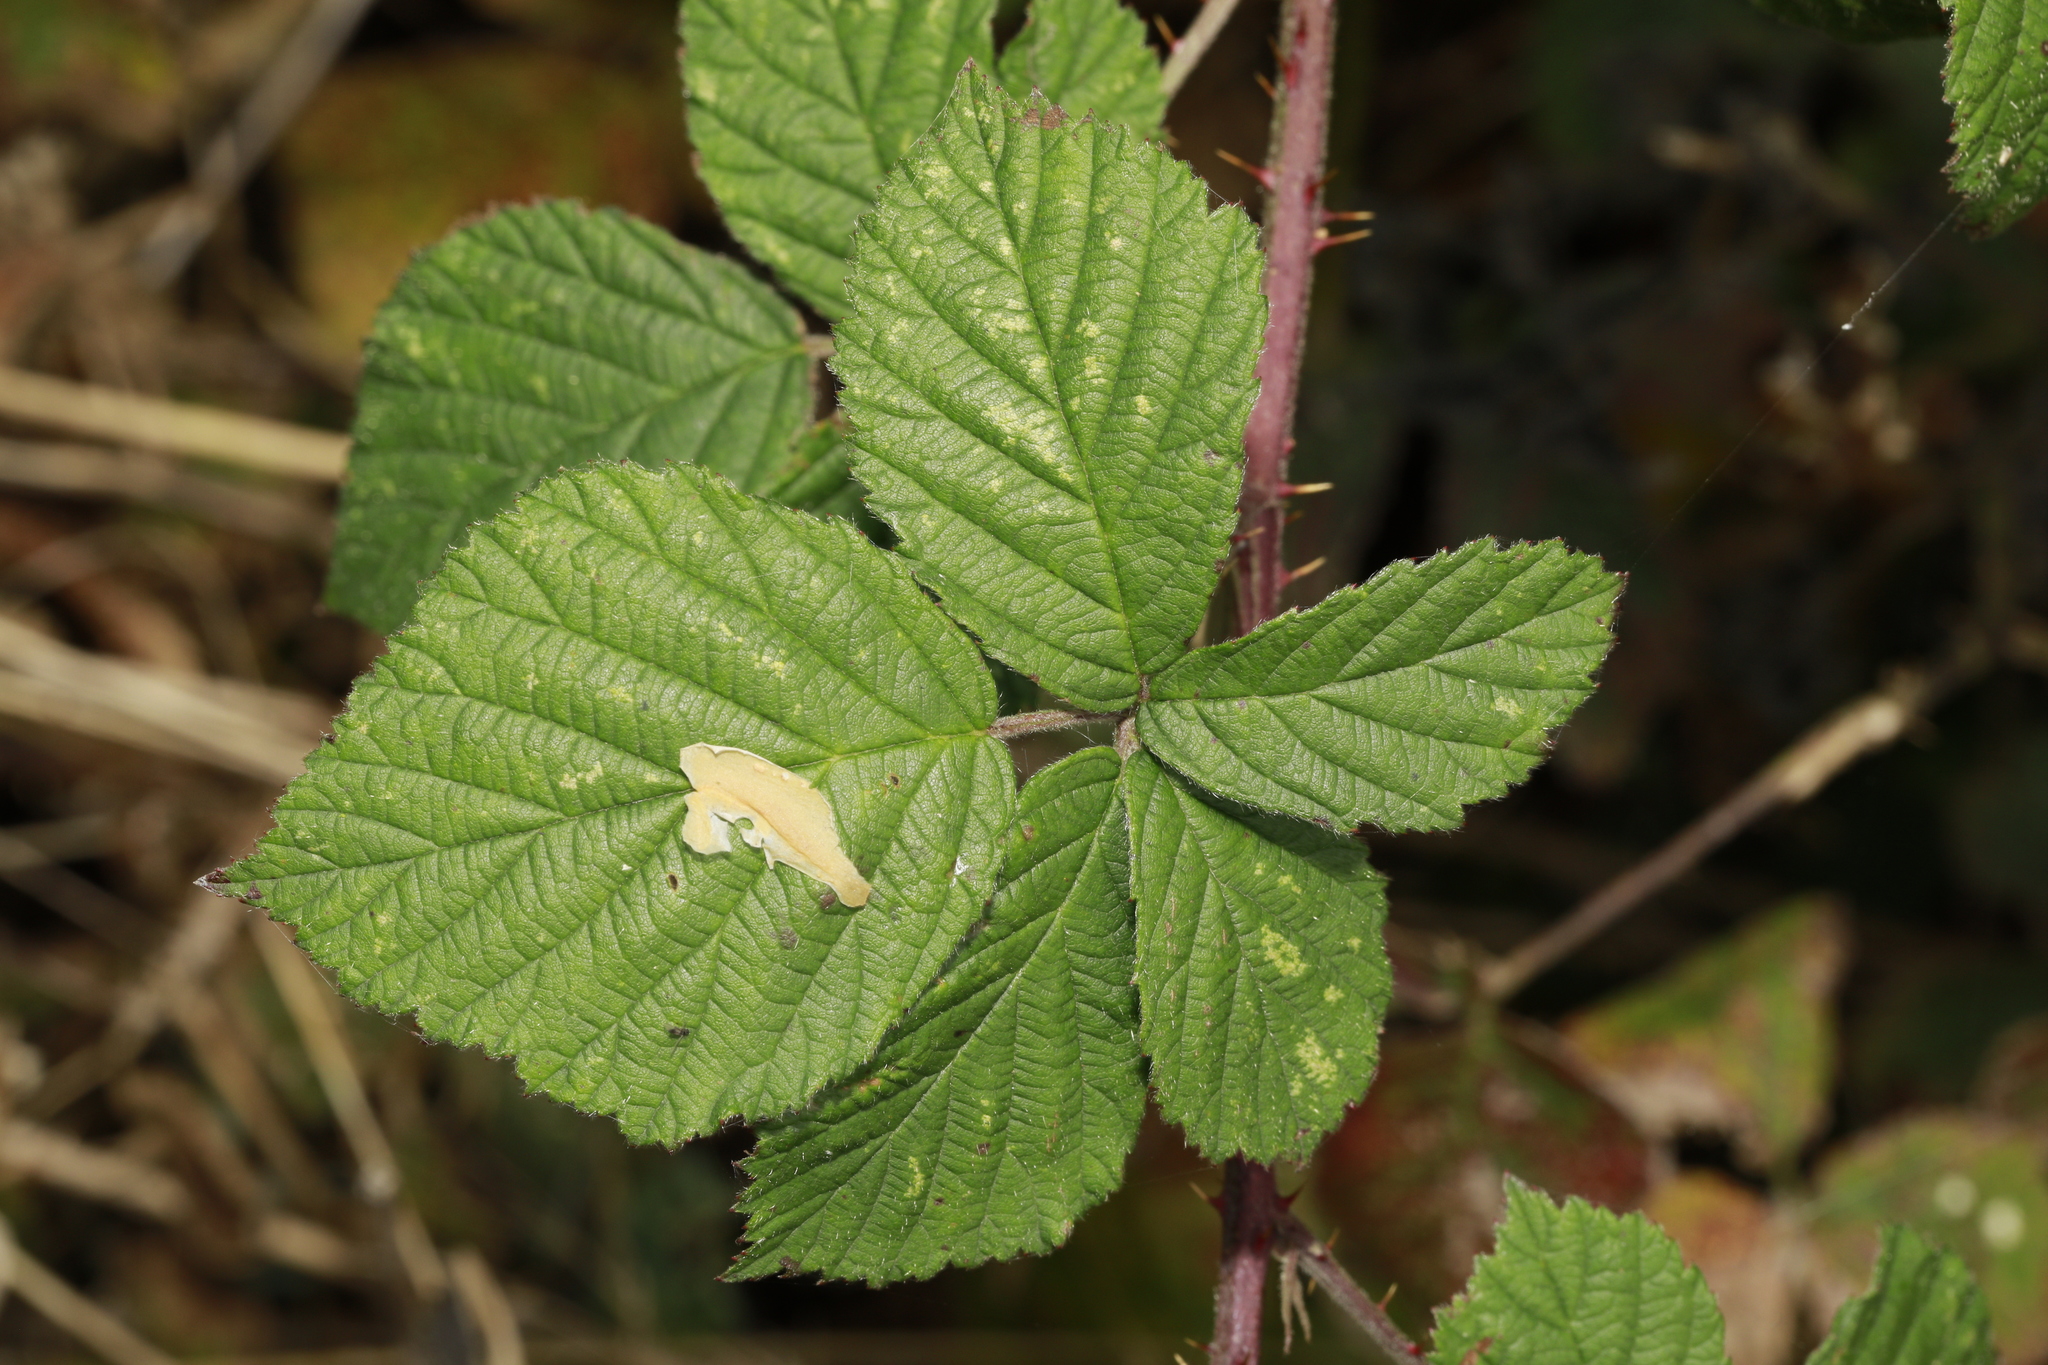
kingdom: Animalia
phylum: Arthropoda
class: Insecta
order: Lepidoptera
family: Tischeriidae
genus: Coptotriche
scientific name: Coptotriche marginea
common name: Bordered carl
